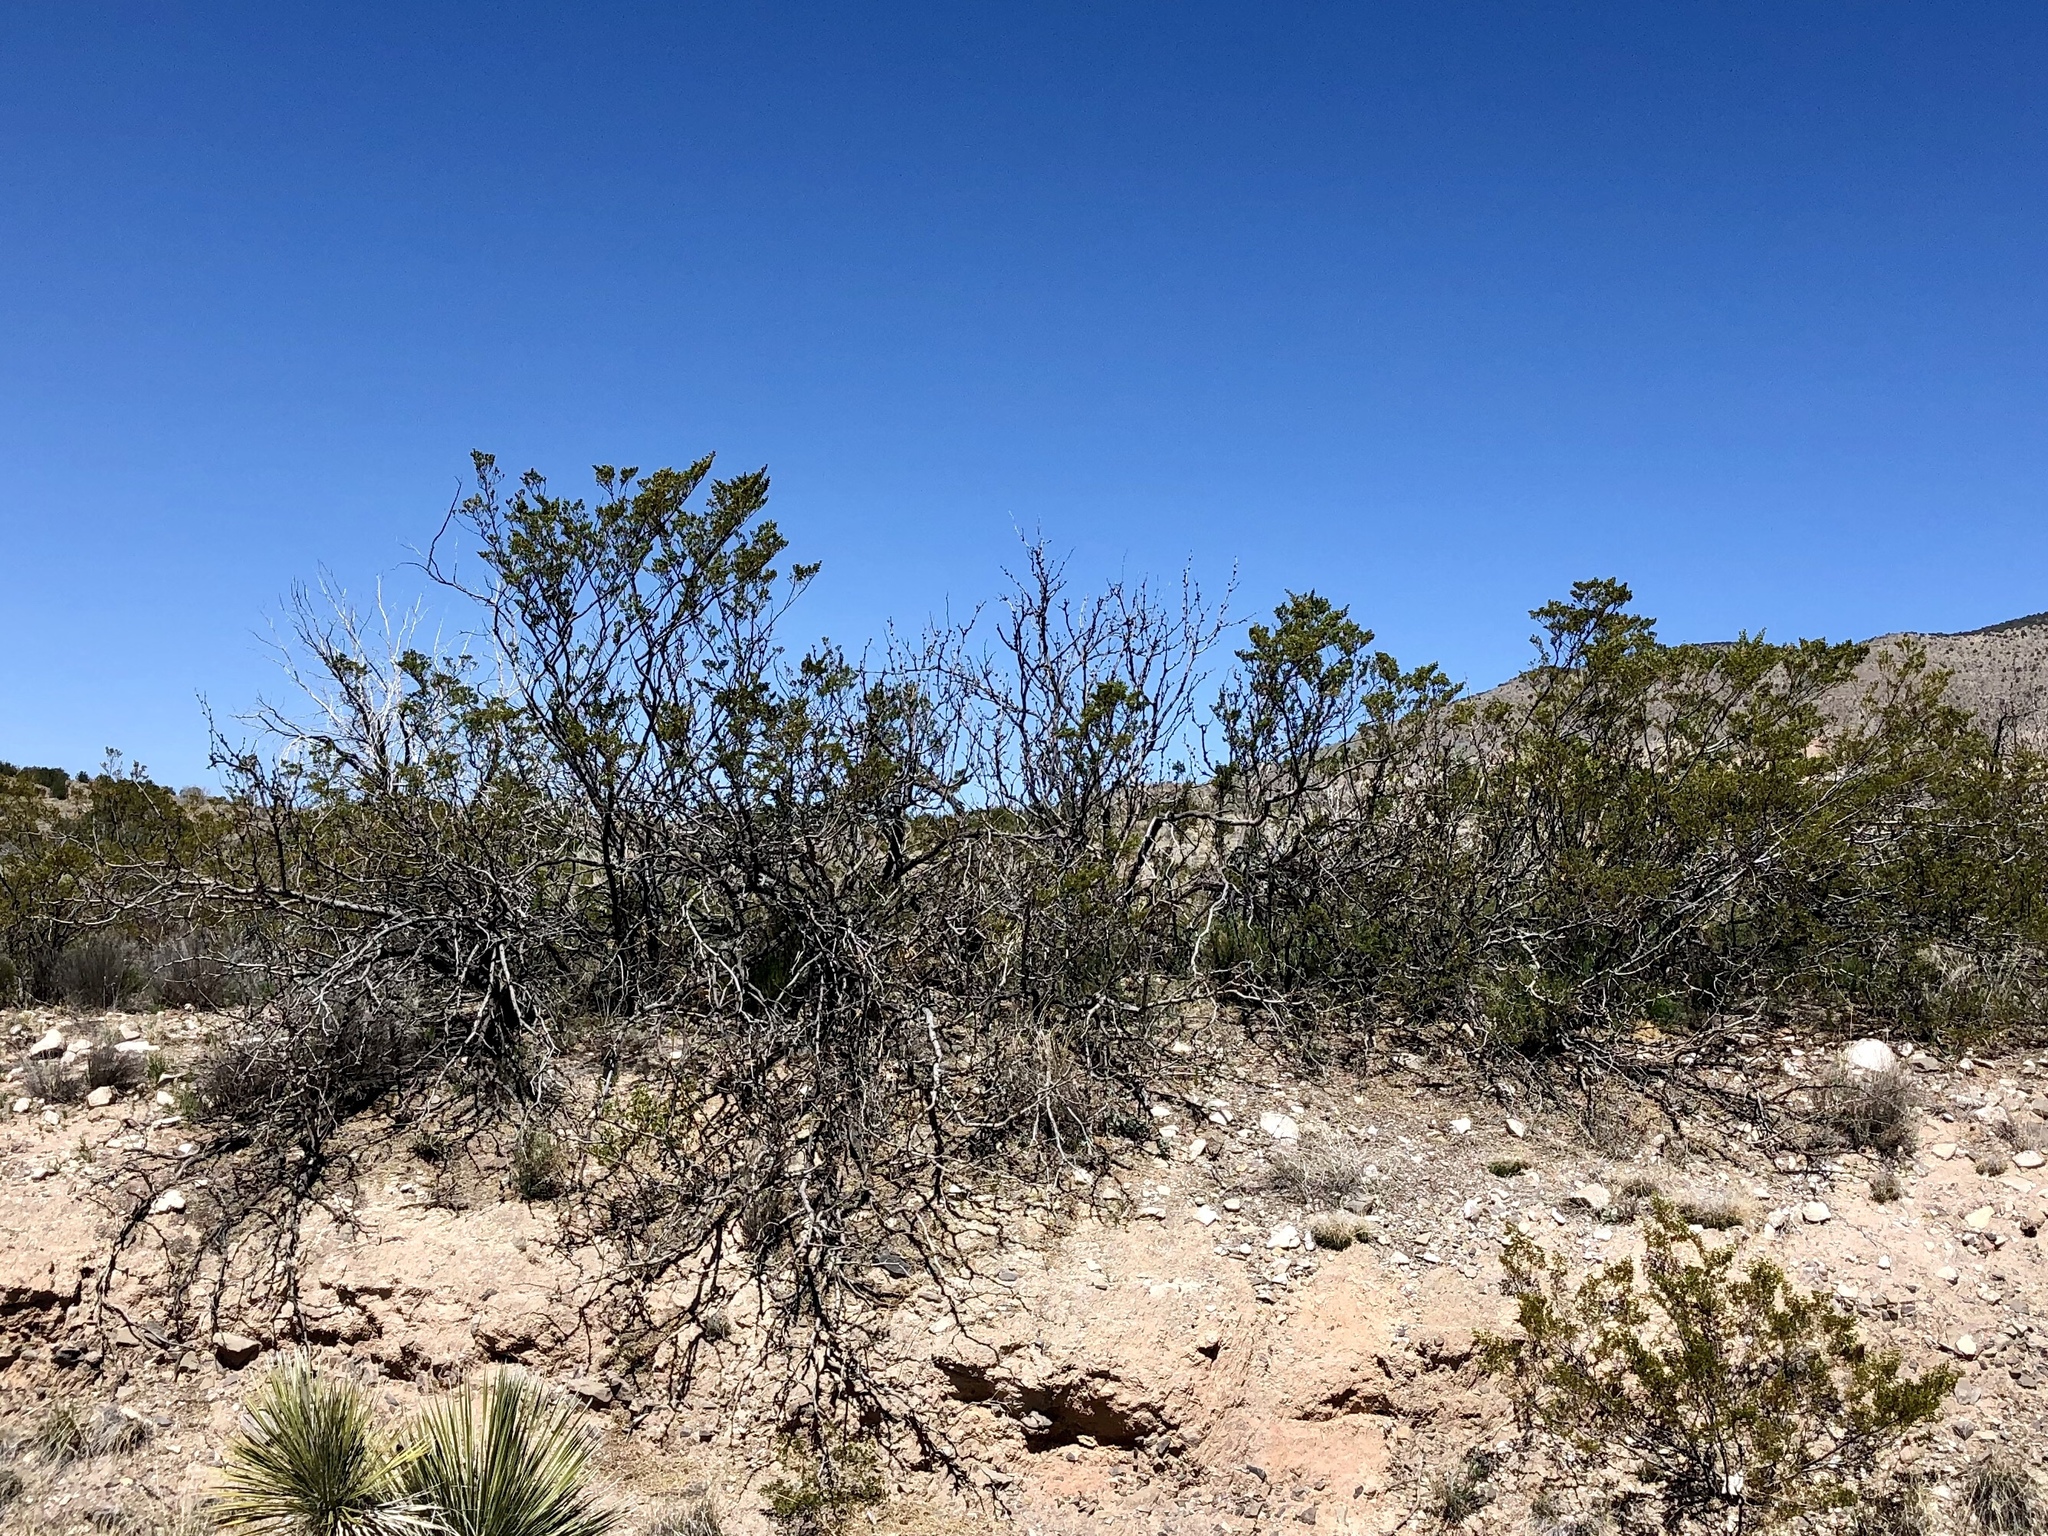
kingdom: Plantae
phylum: Tracheophyta
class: Magnoliopsida
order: Zygophyllales
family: Zygophyllaceae
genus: Larrea
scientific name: Larrea tridentata
